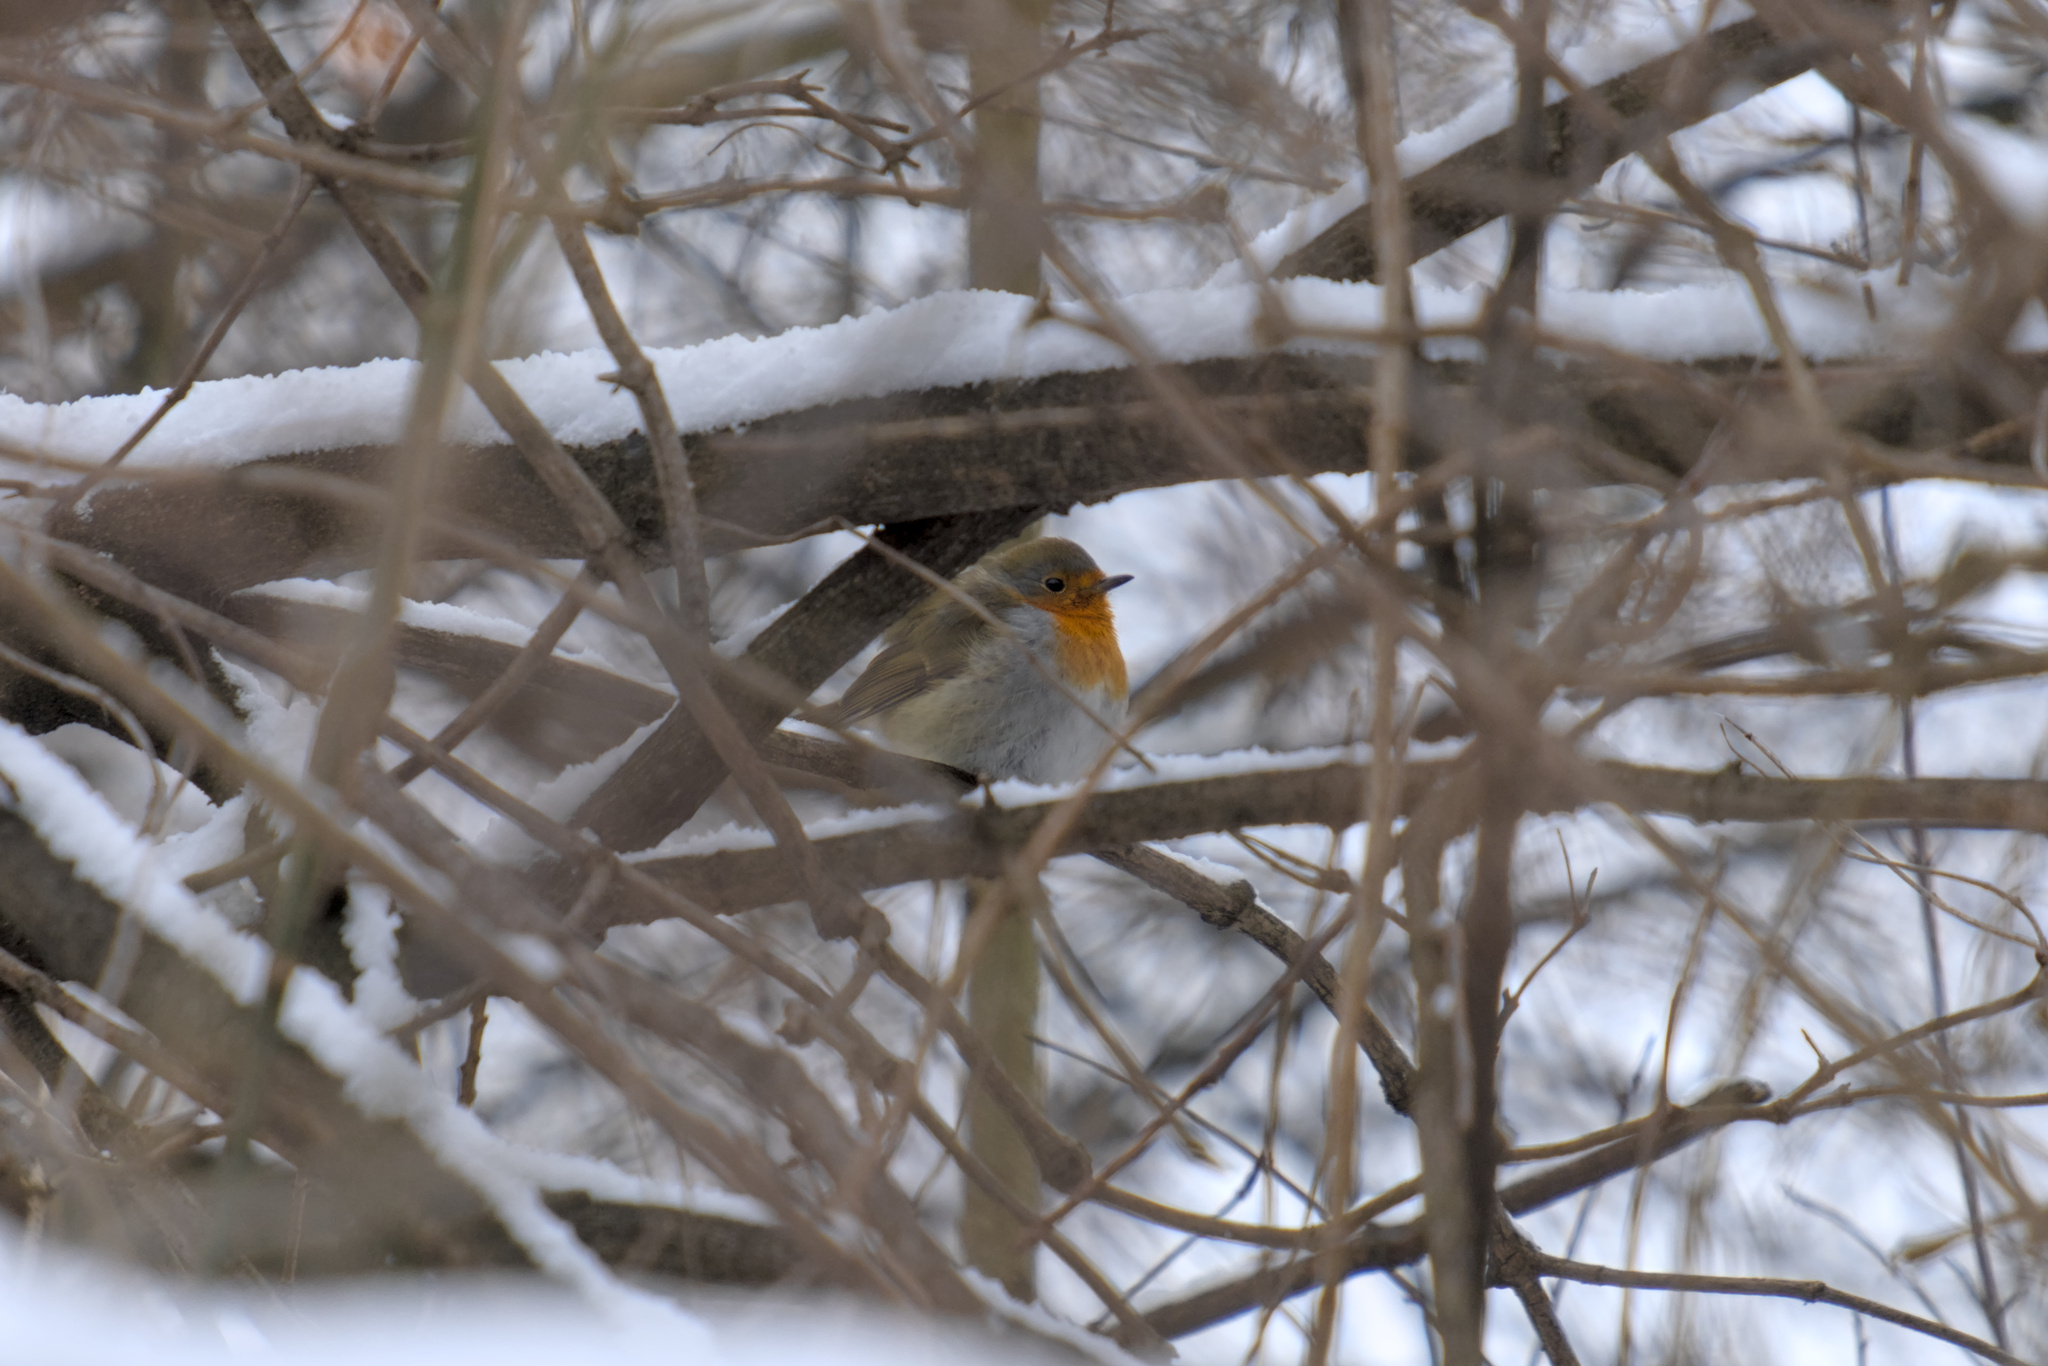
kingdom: Animalia
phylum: Chordata
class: Aves
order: Passeriformes
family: Muscicapidae
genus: Erithacus
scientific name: Erithacus rubecula
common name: European robin
